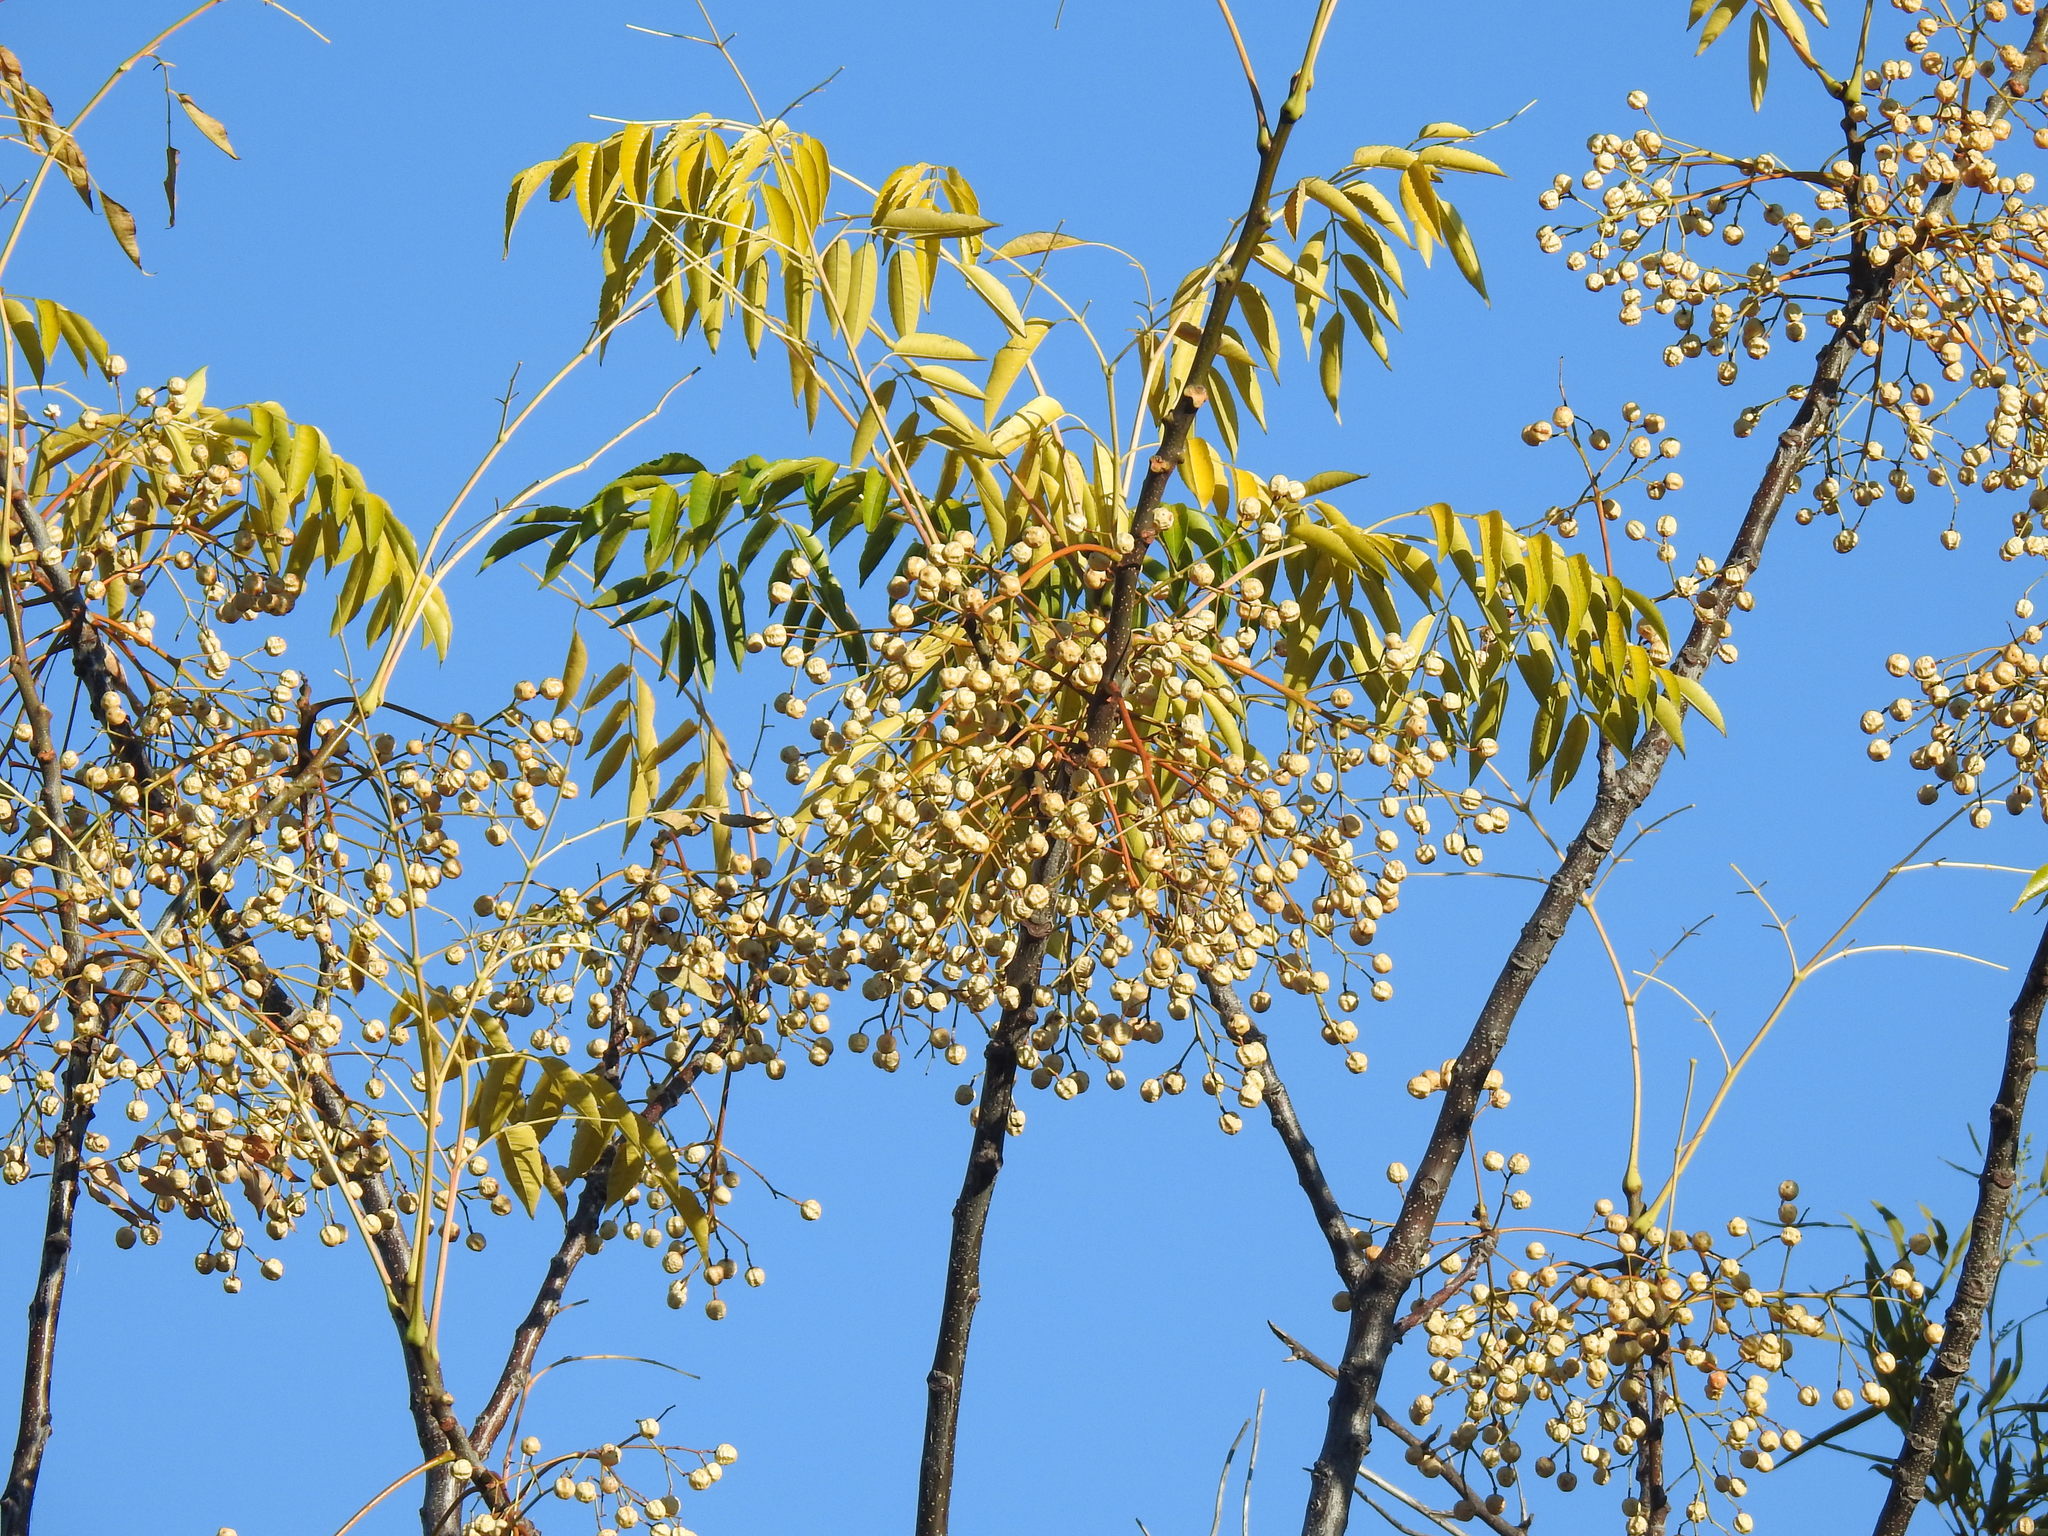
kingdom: Plantae
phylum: Tracheophyta
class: Magnoliopsida
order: Sapindales
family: Meliaceae
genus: Melia
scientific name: Melia azedarach
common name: Chinaberrytree
